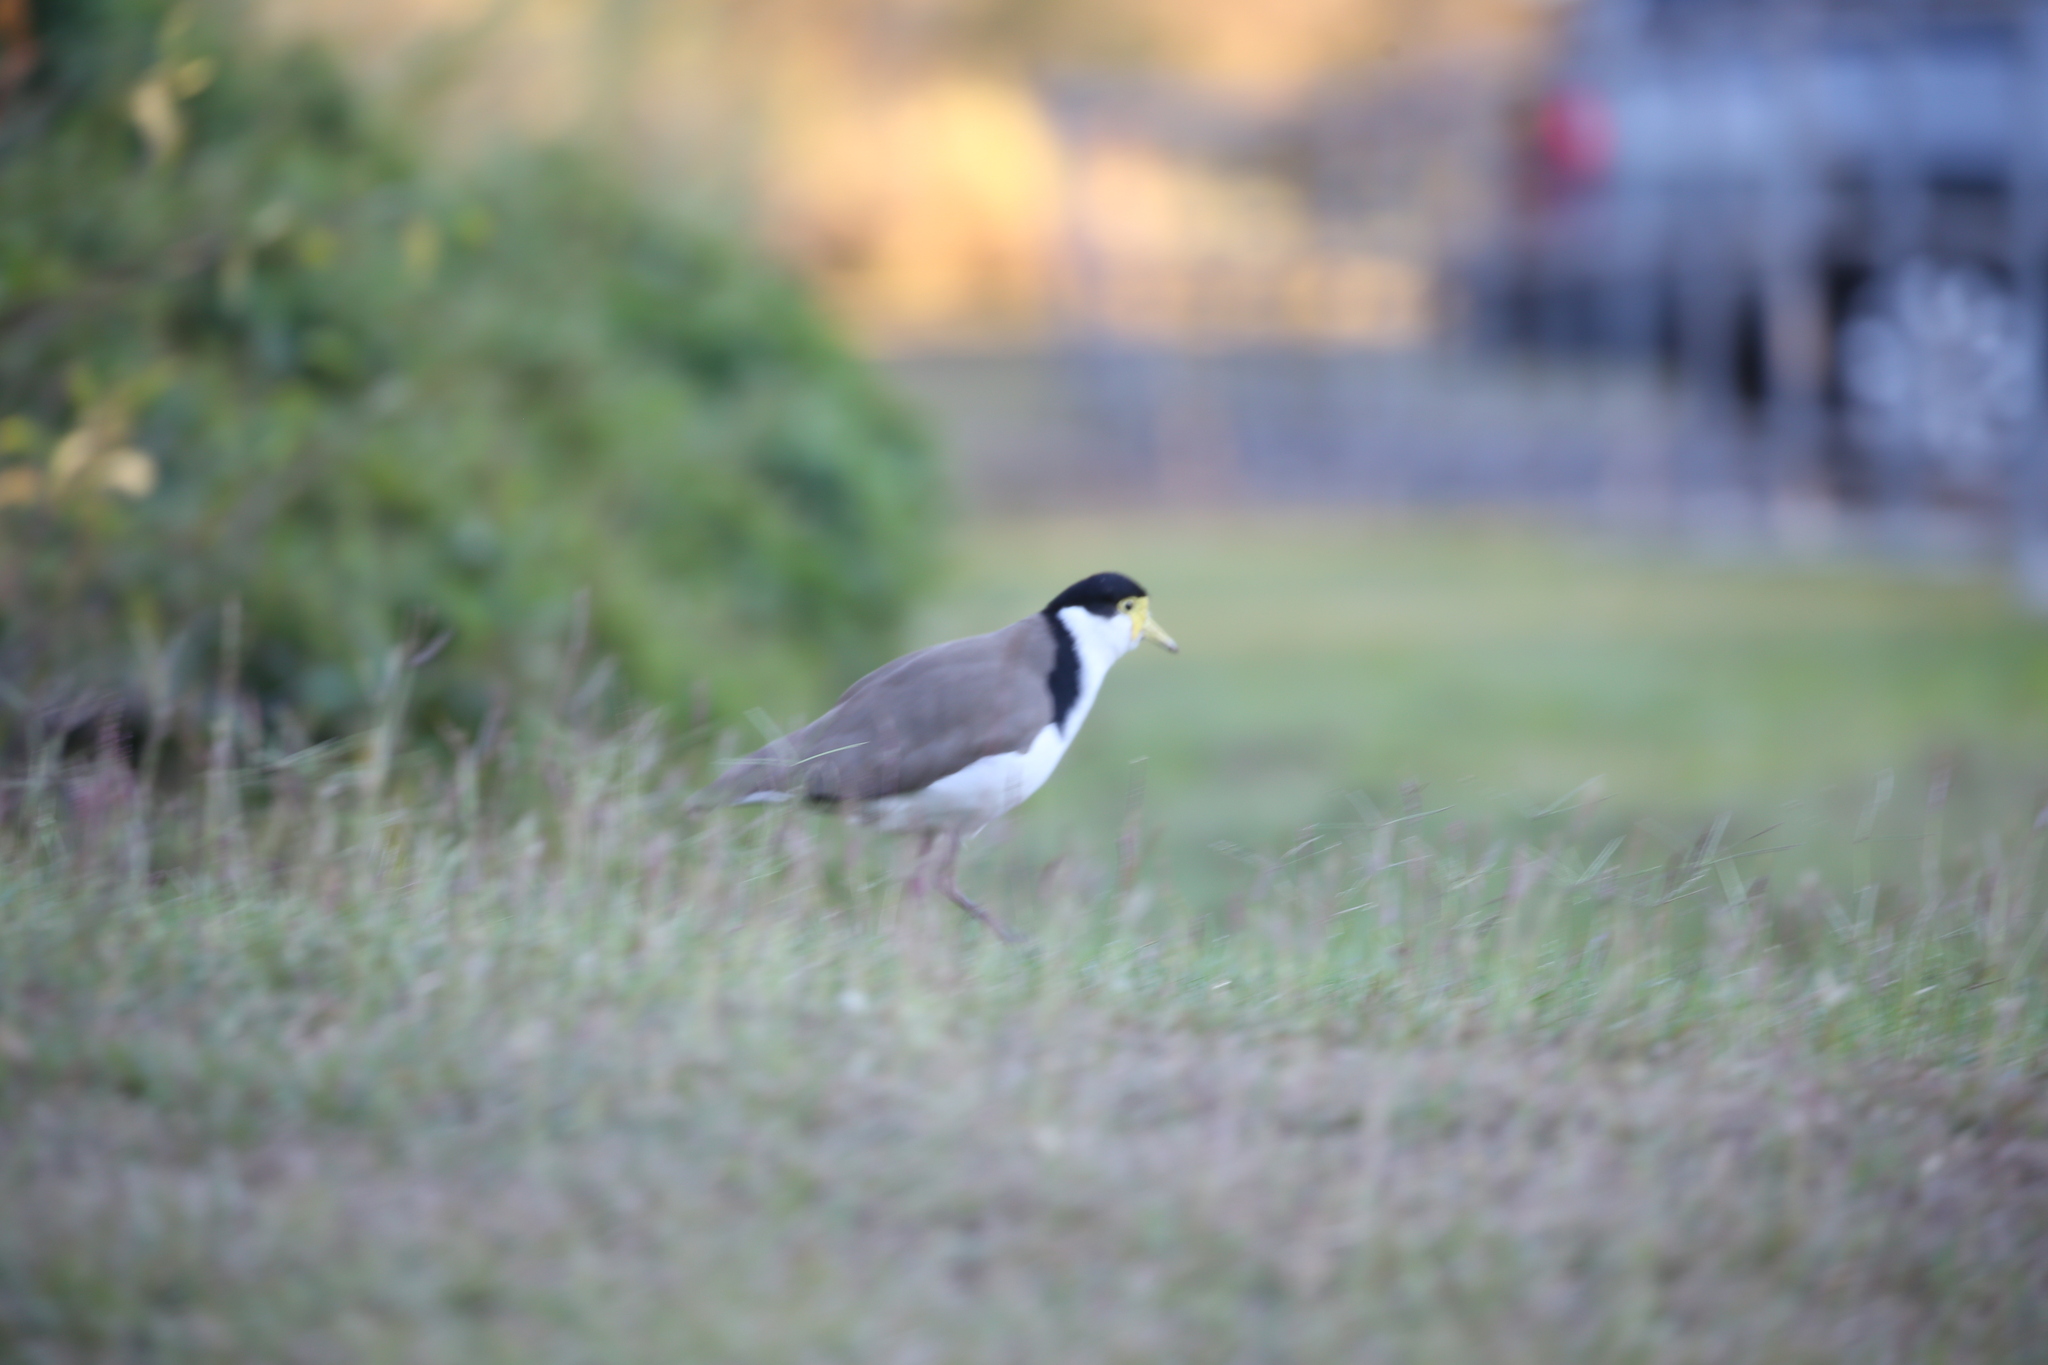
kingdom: Animalia
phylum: Chordata
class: Aves
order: Charadriiformes
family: Charadriidae
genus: Vanellus
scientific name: Vanellus miles
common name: Masked lapwing
